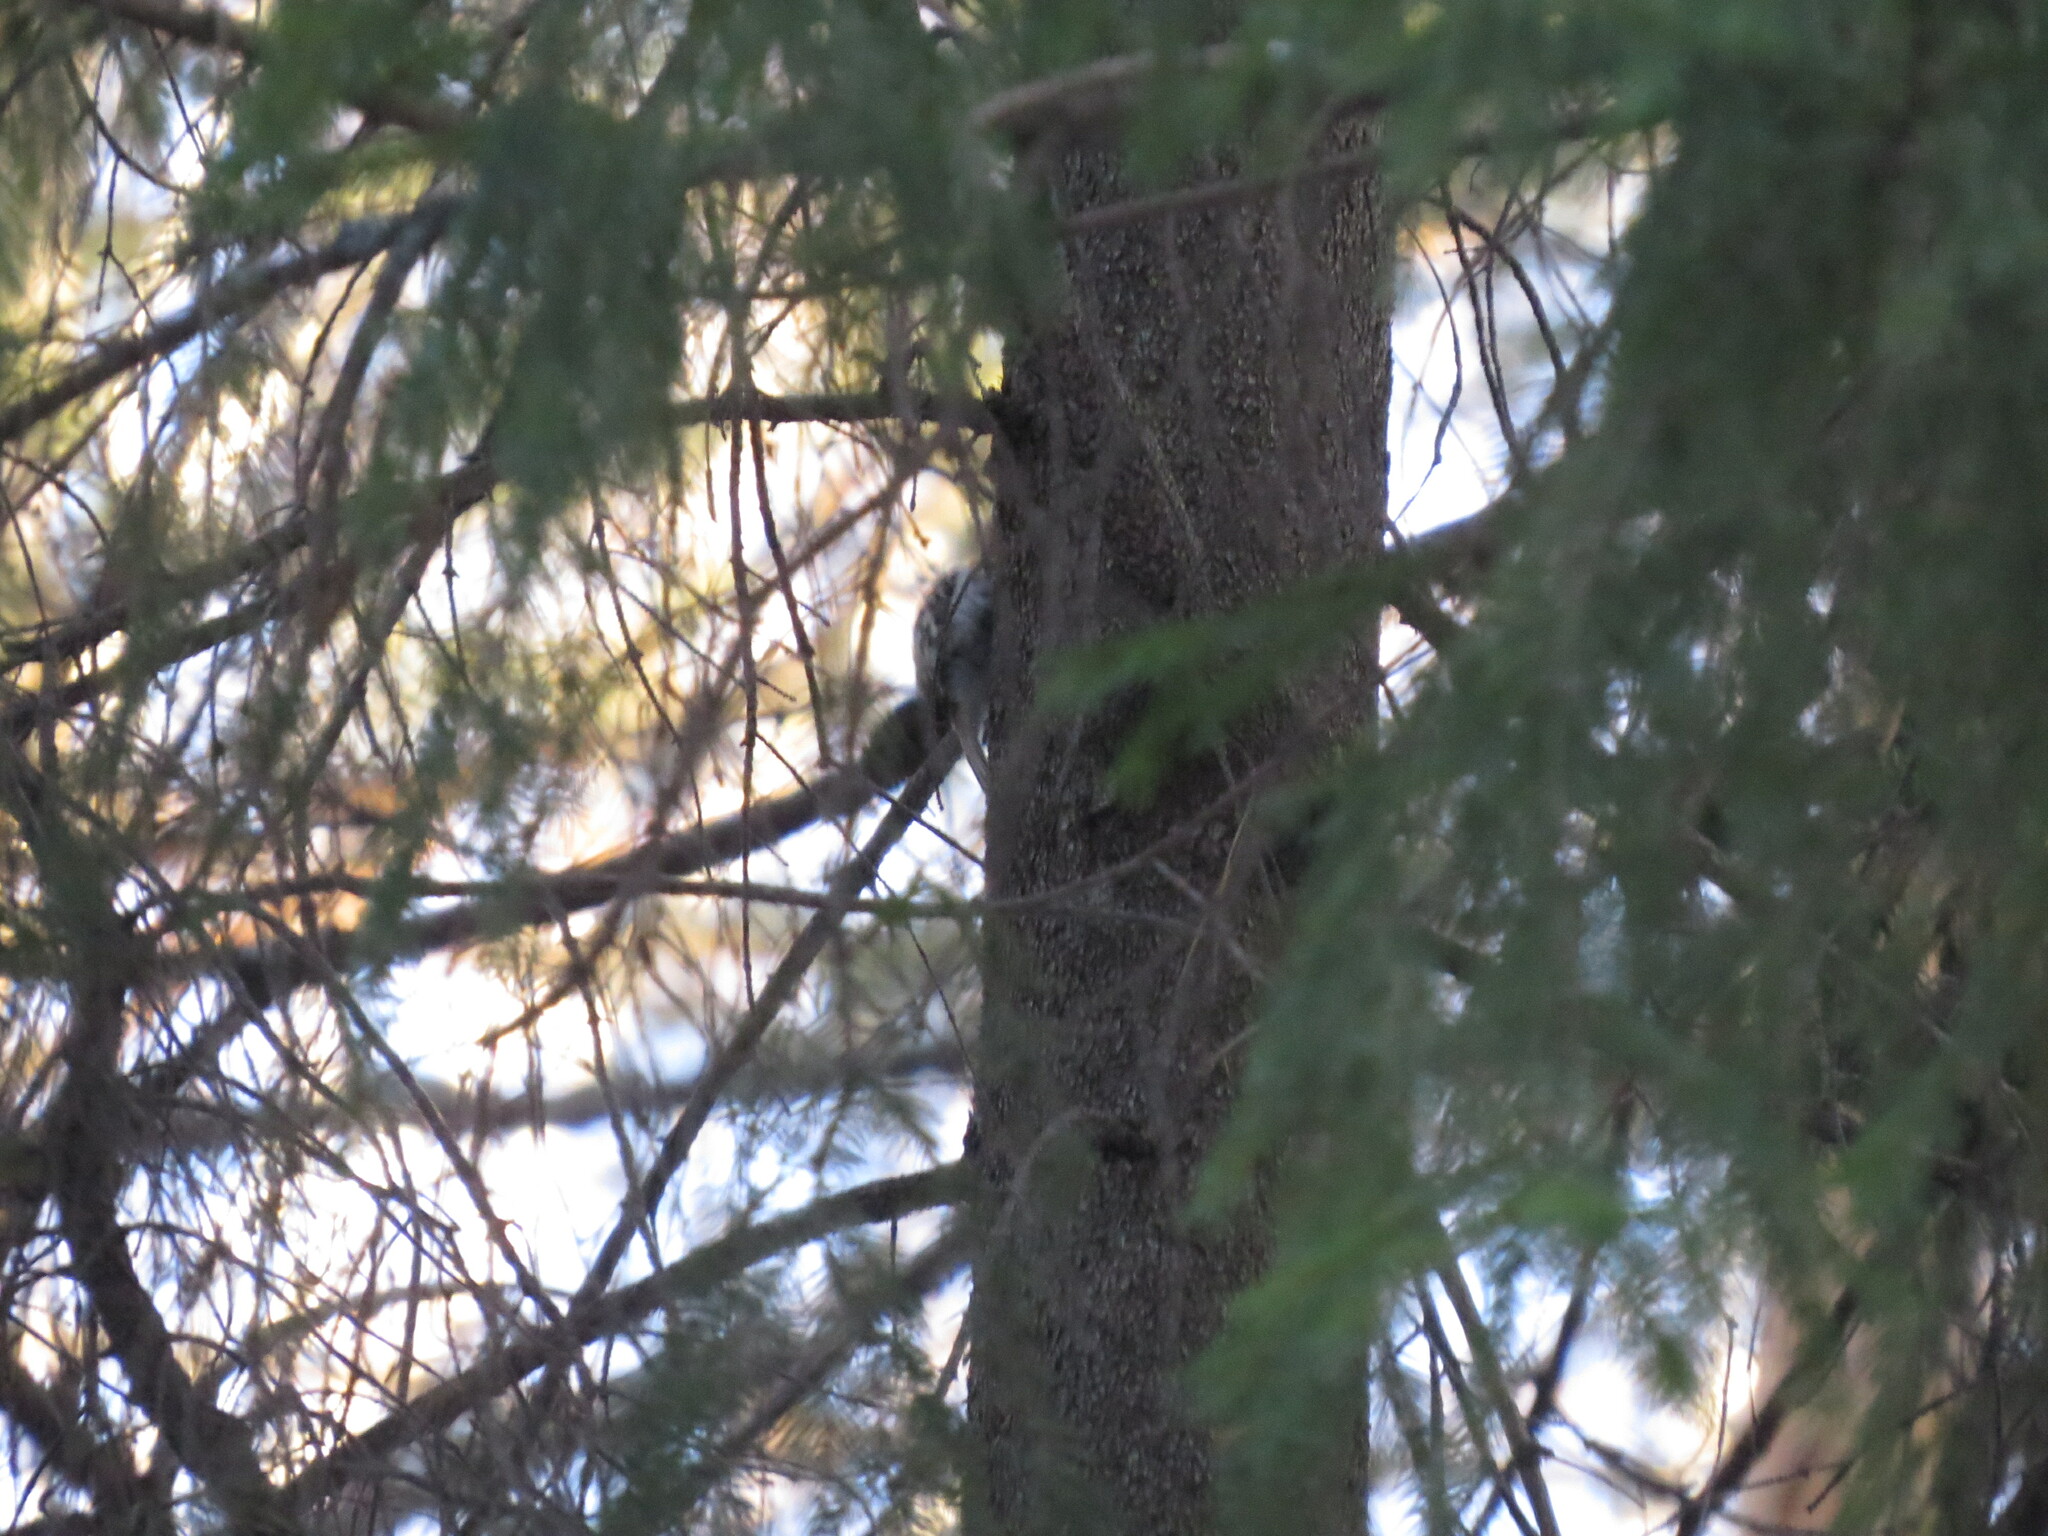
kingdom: Animalia
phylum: Chordata
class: Aves
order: Passeriformes
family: Certhiidae
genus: Certhia
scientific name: Certhia familiaris
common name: Eurasian treecreeper
